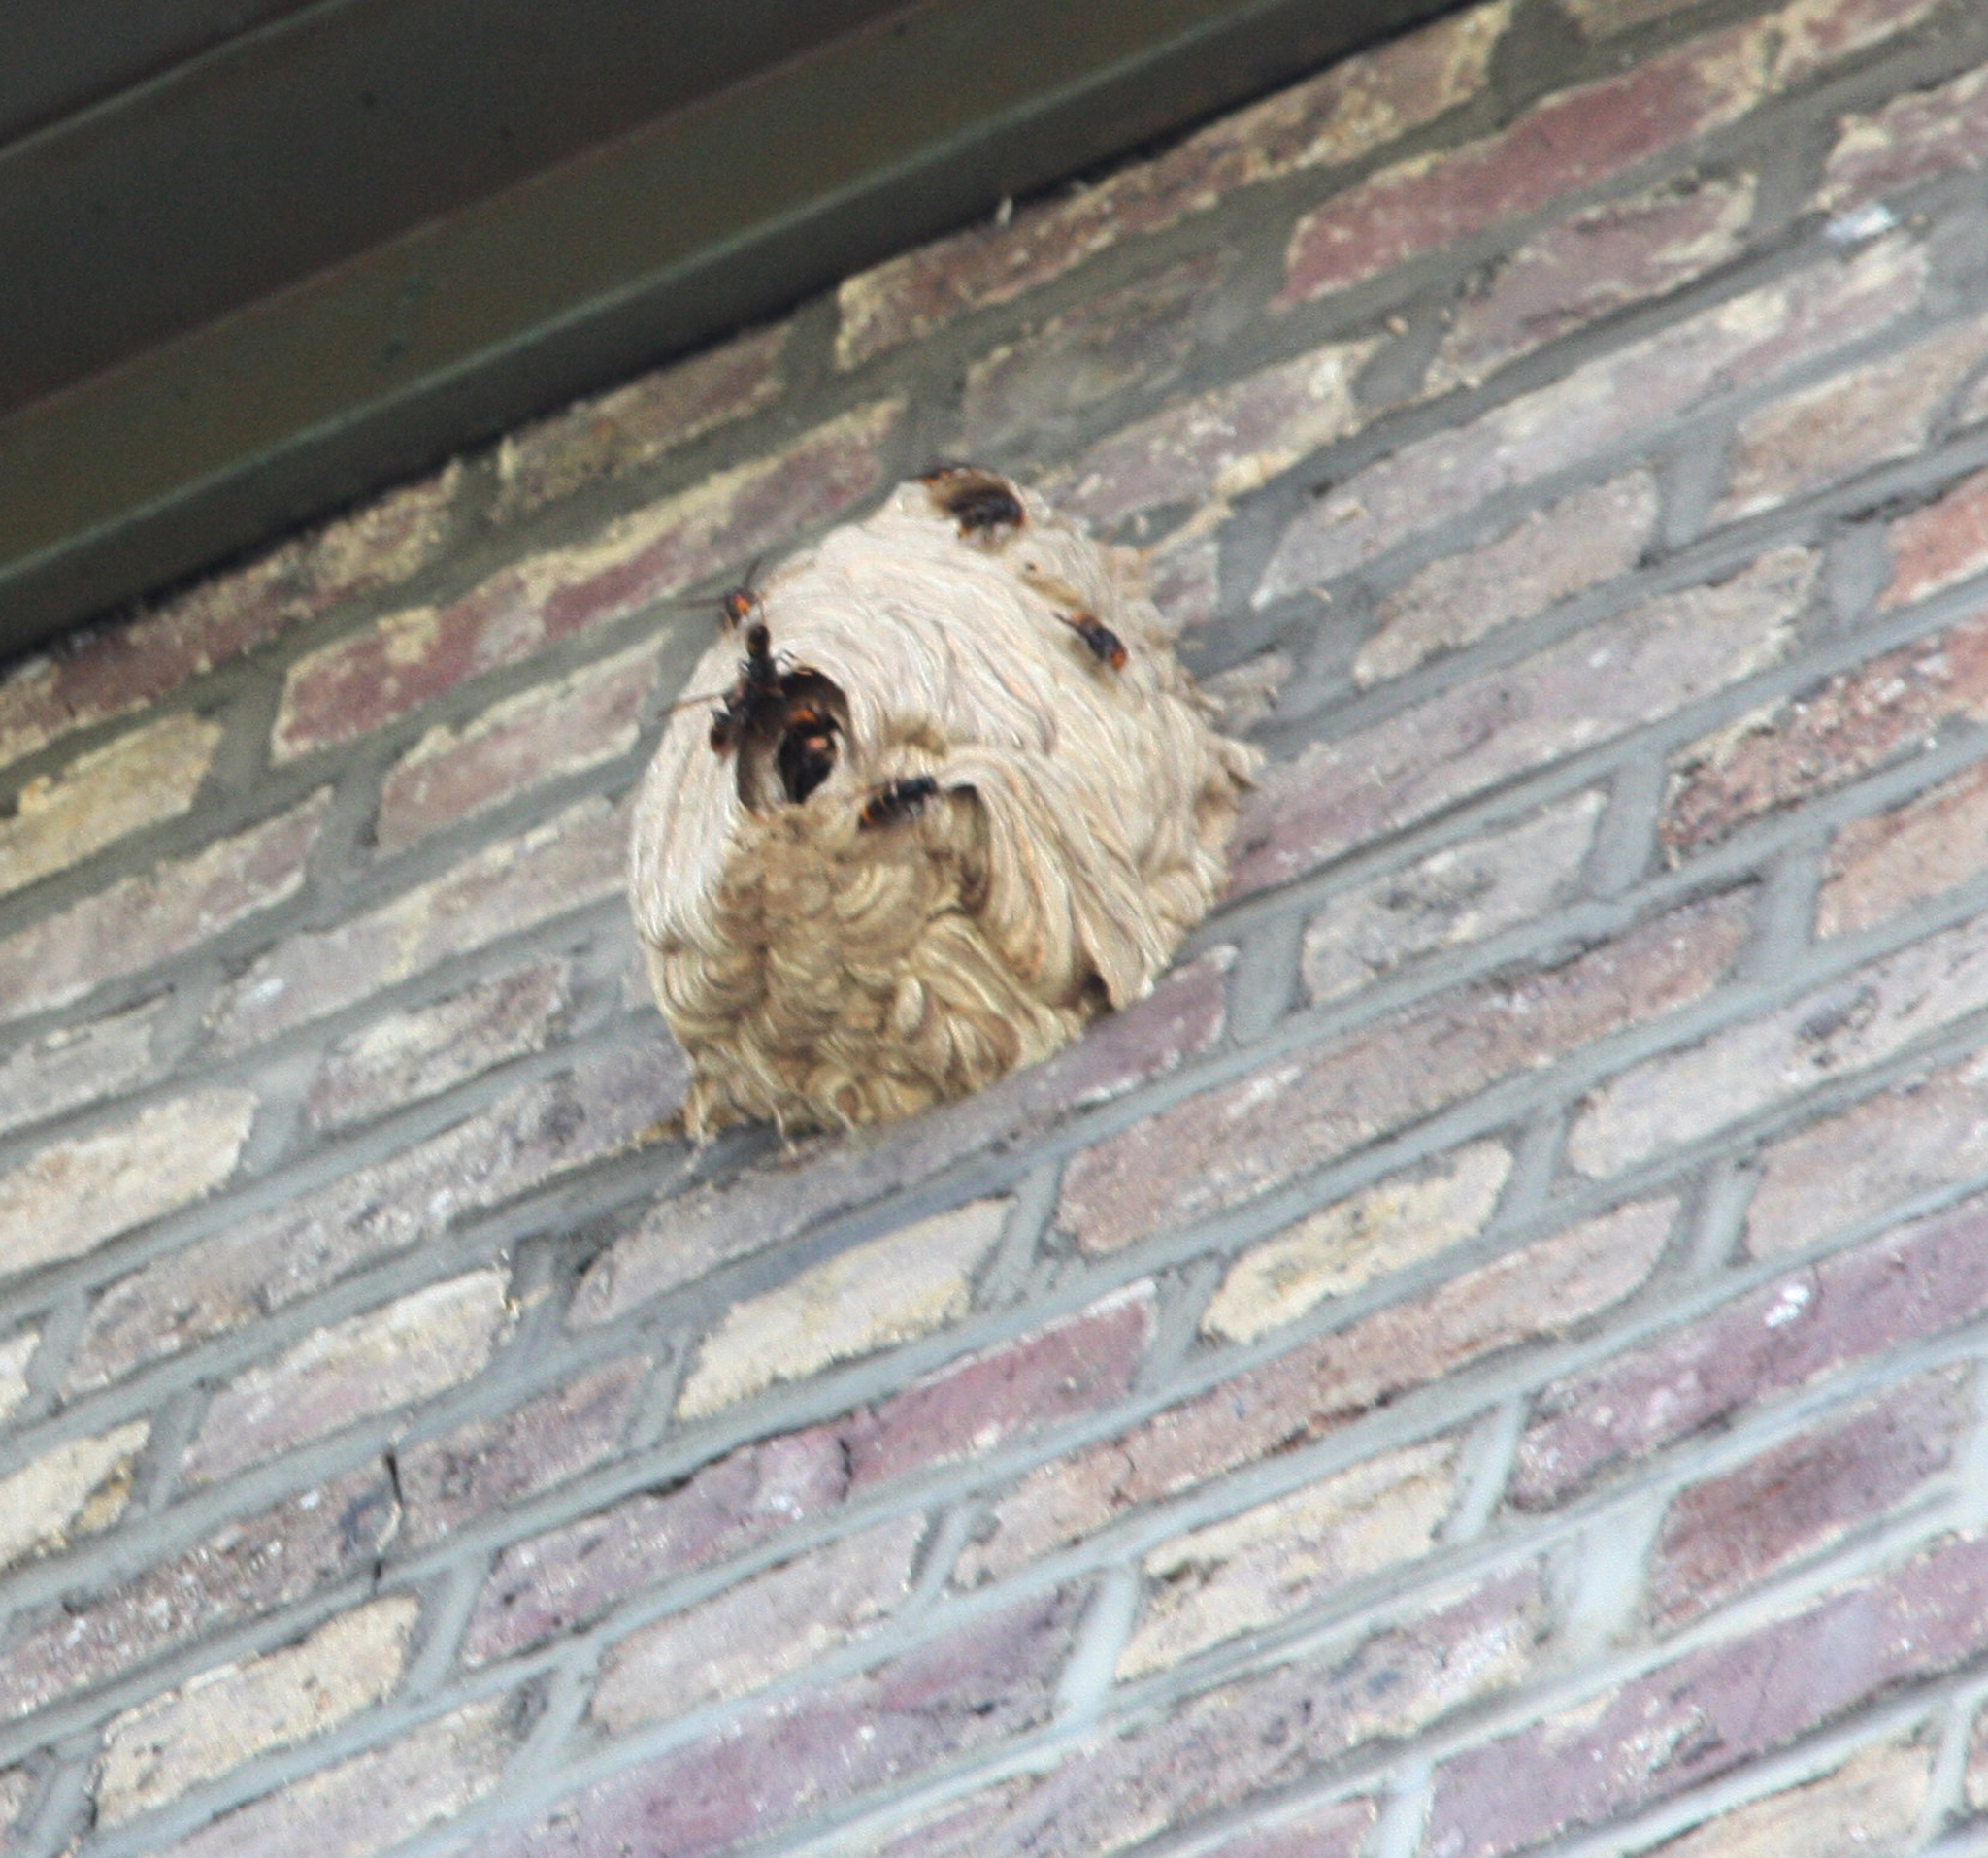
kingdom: Animalia
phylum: Arthropoda
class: Insecta
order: Hymenoptera
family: Vespidae
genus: Vespa
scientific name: Vespa velutina
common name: Asian hornet
